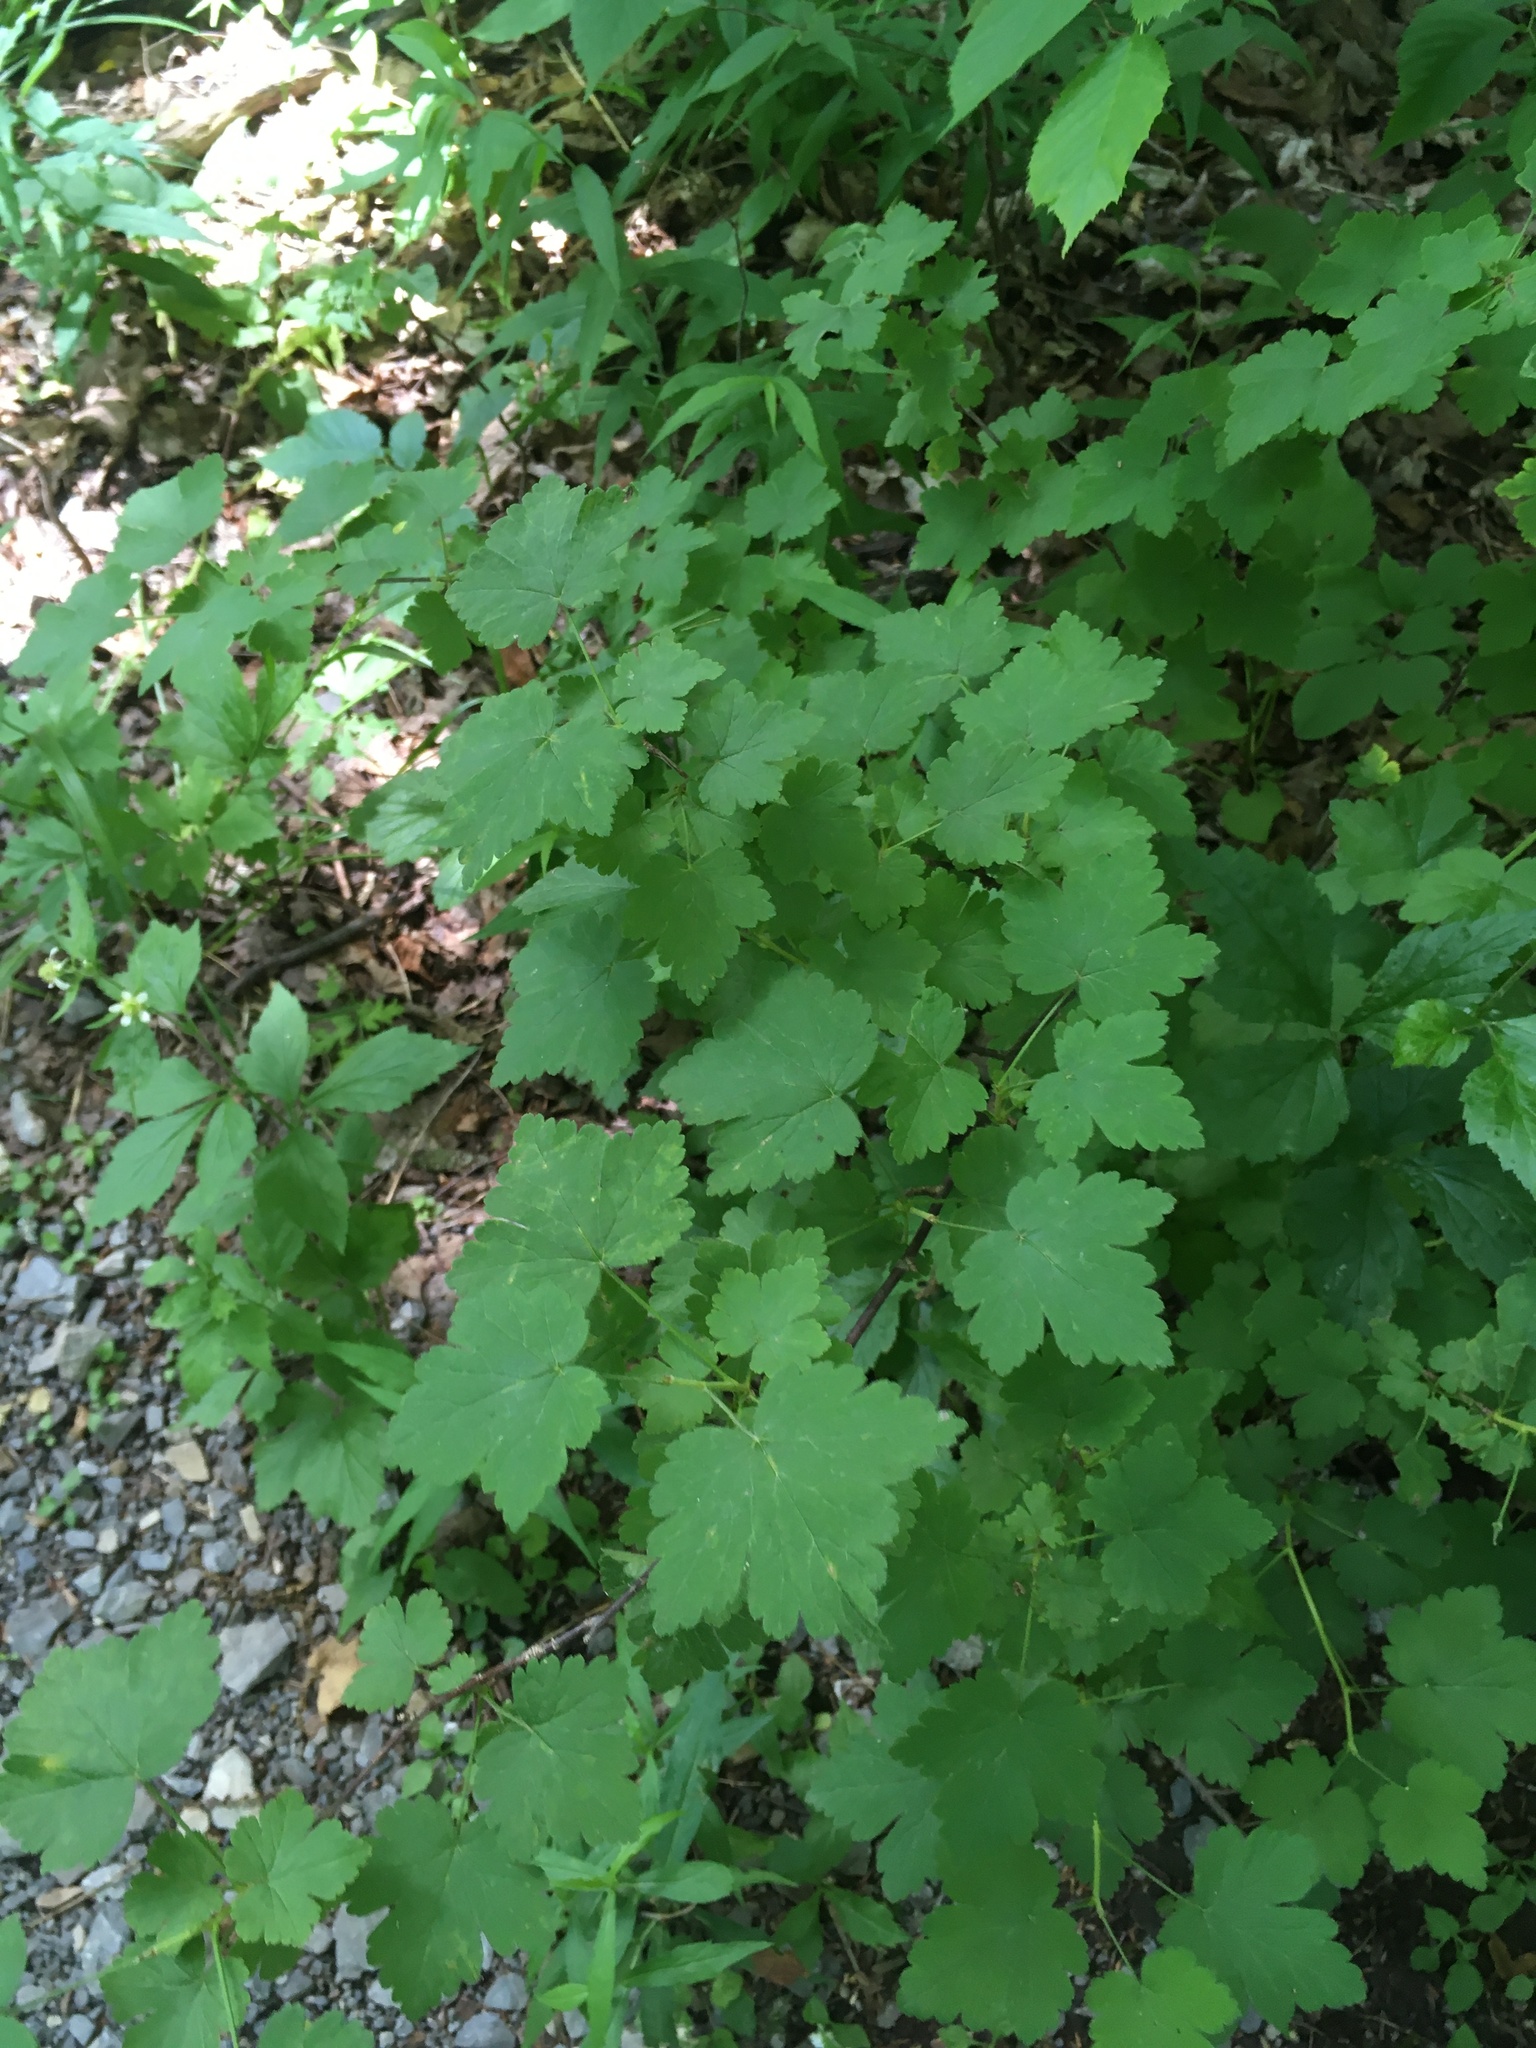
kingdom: Plantae
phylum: Tracheophyta
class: Magnoliopsida
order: Saxifragales
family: Grossulariaceae
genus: Ribes
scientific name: Ribes cynosbati
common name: American gooseberry
